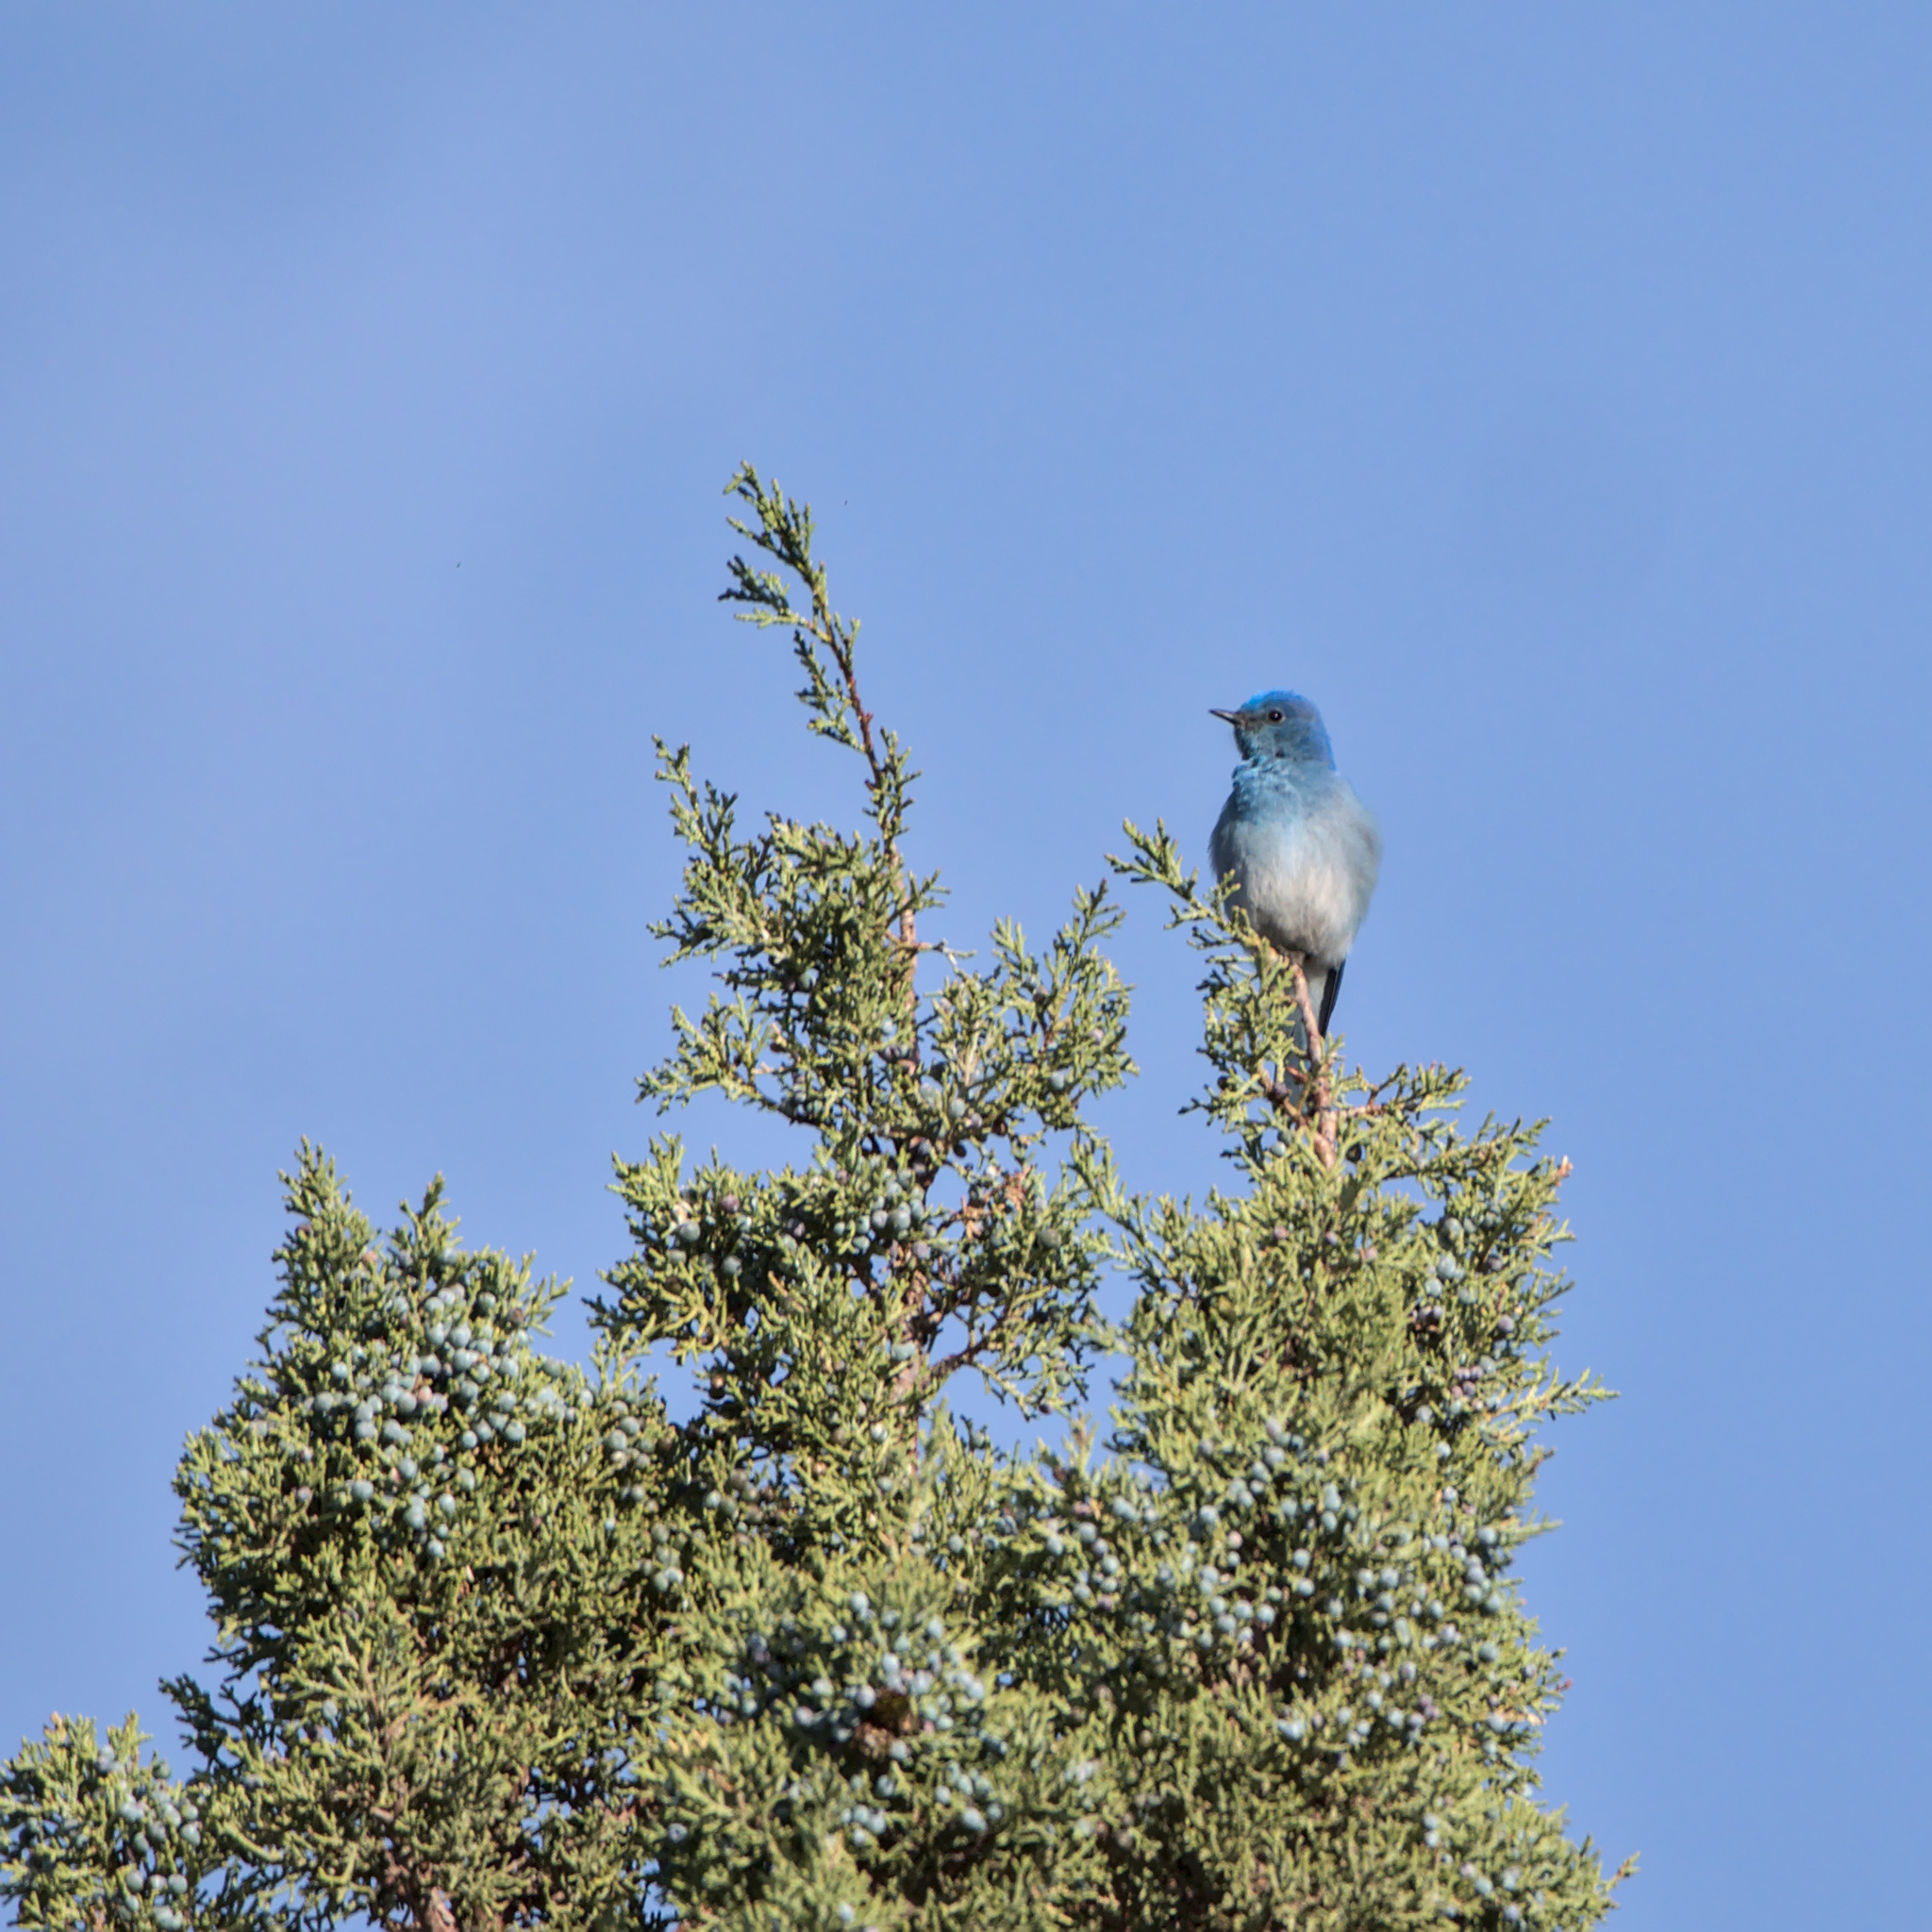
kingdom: Animalia
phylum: Chordata
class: Aves
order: Passeriformes
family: Turdidae
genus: Sialia
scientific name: Sialia currucoides
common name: Mountain bluebird
